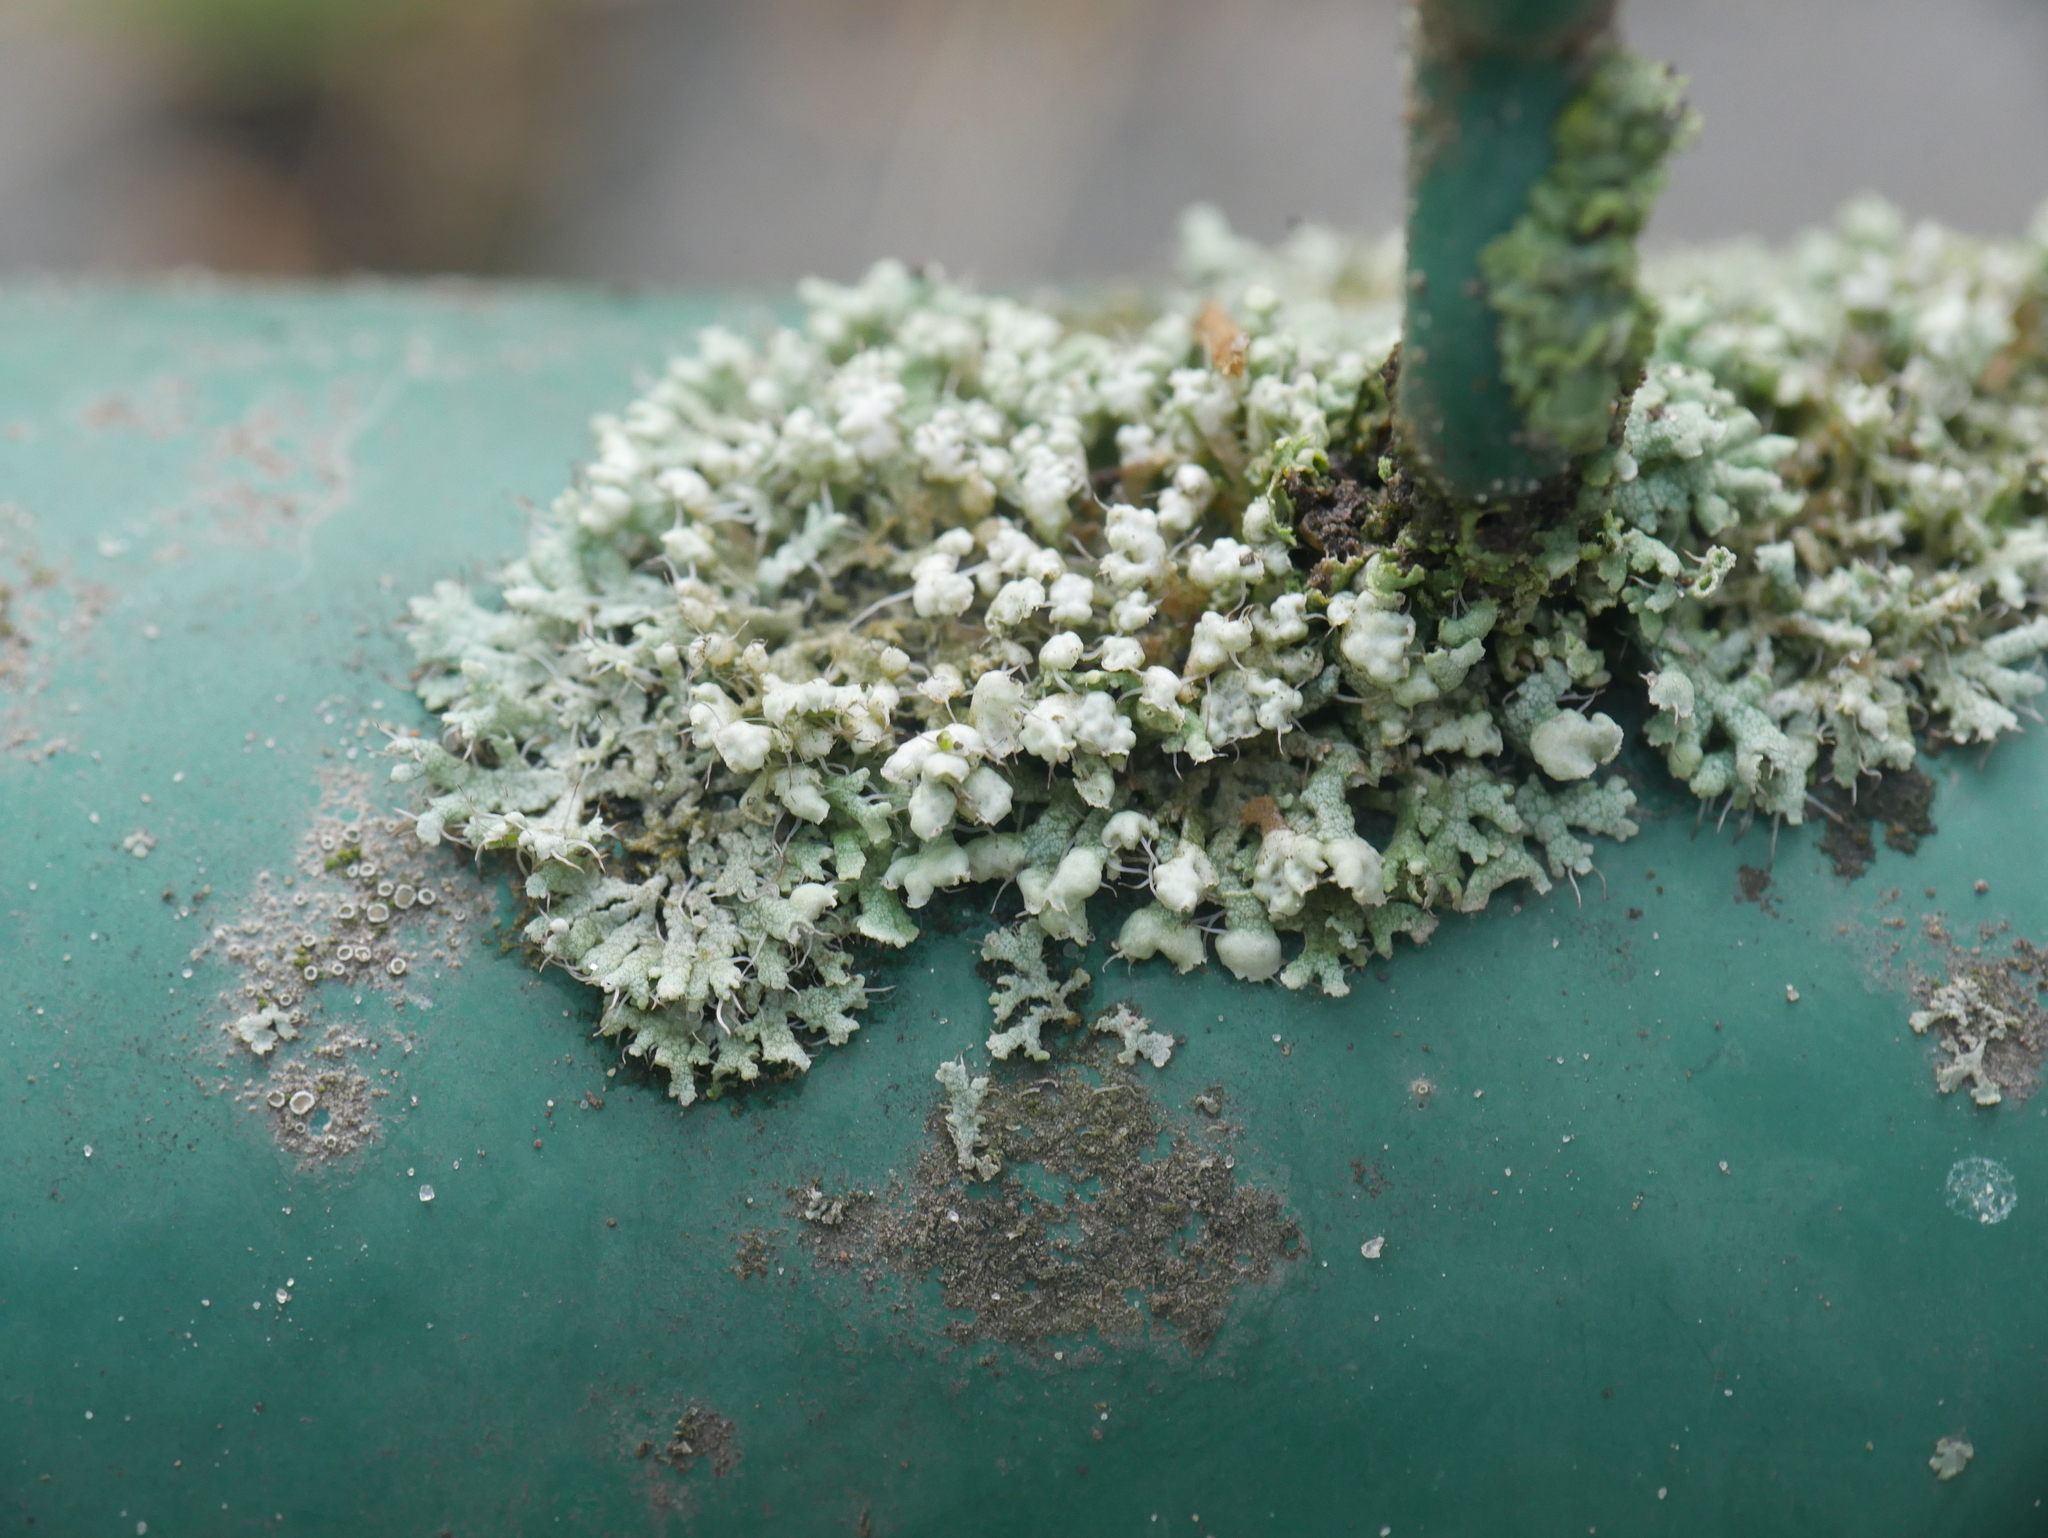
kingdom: Fungi
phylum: Ascomycota
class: Lecanoromycetes
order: Caliciales
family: Physciaceae
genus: Physcia
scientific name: Physcia adscendens
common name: Hooded rosette lichen
